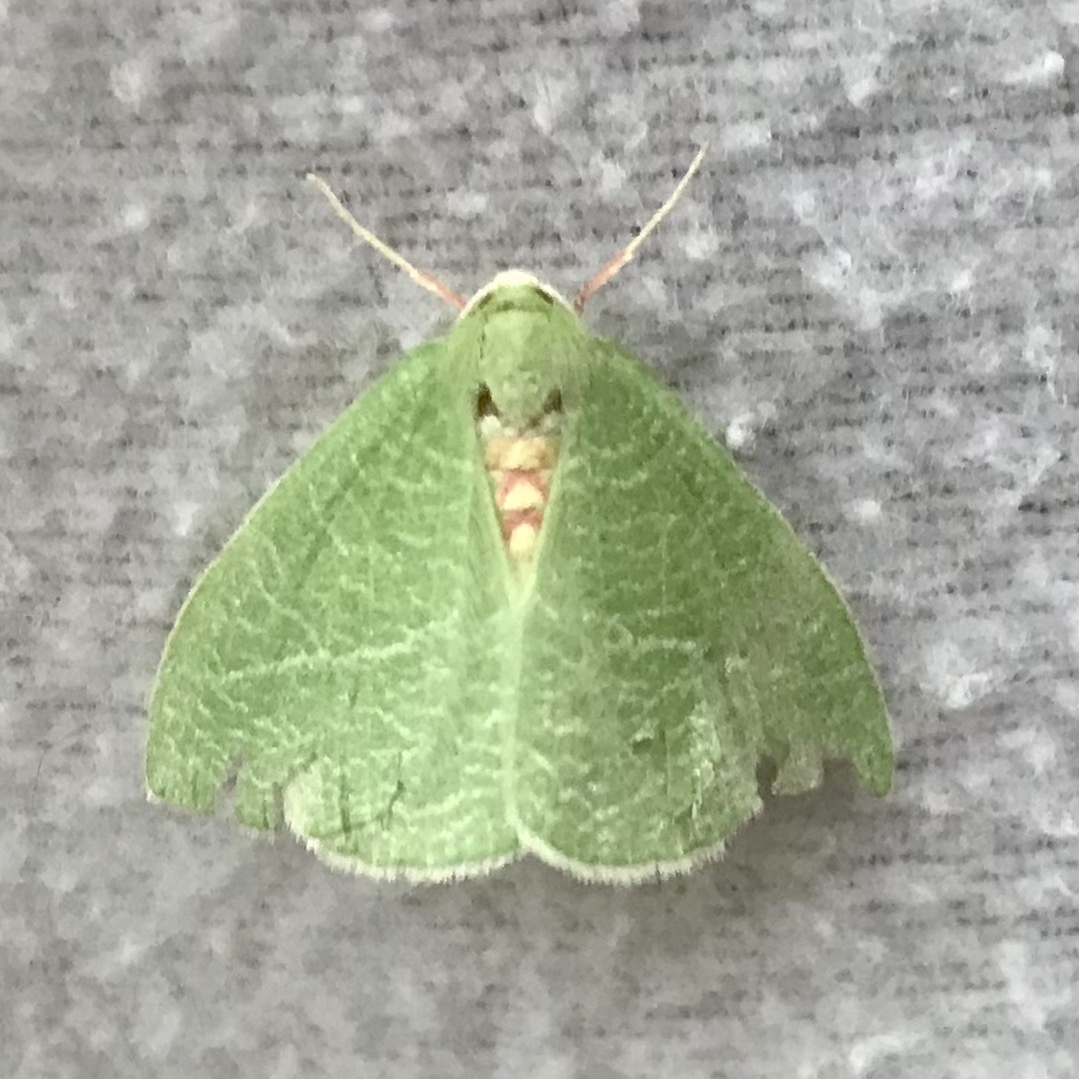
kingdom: Animalia
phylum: Arthropoda
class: Insecta
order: Lepidoptera
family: Geometridae
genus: Chlorosea
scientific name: Chlorosea banksaria
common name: Bank's emerald moth
